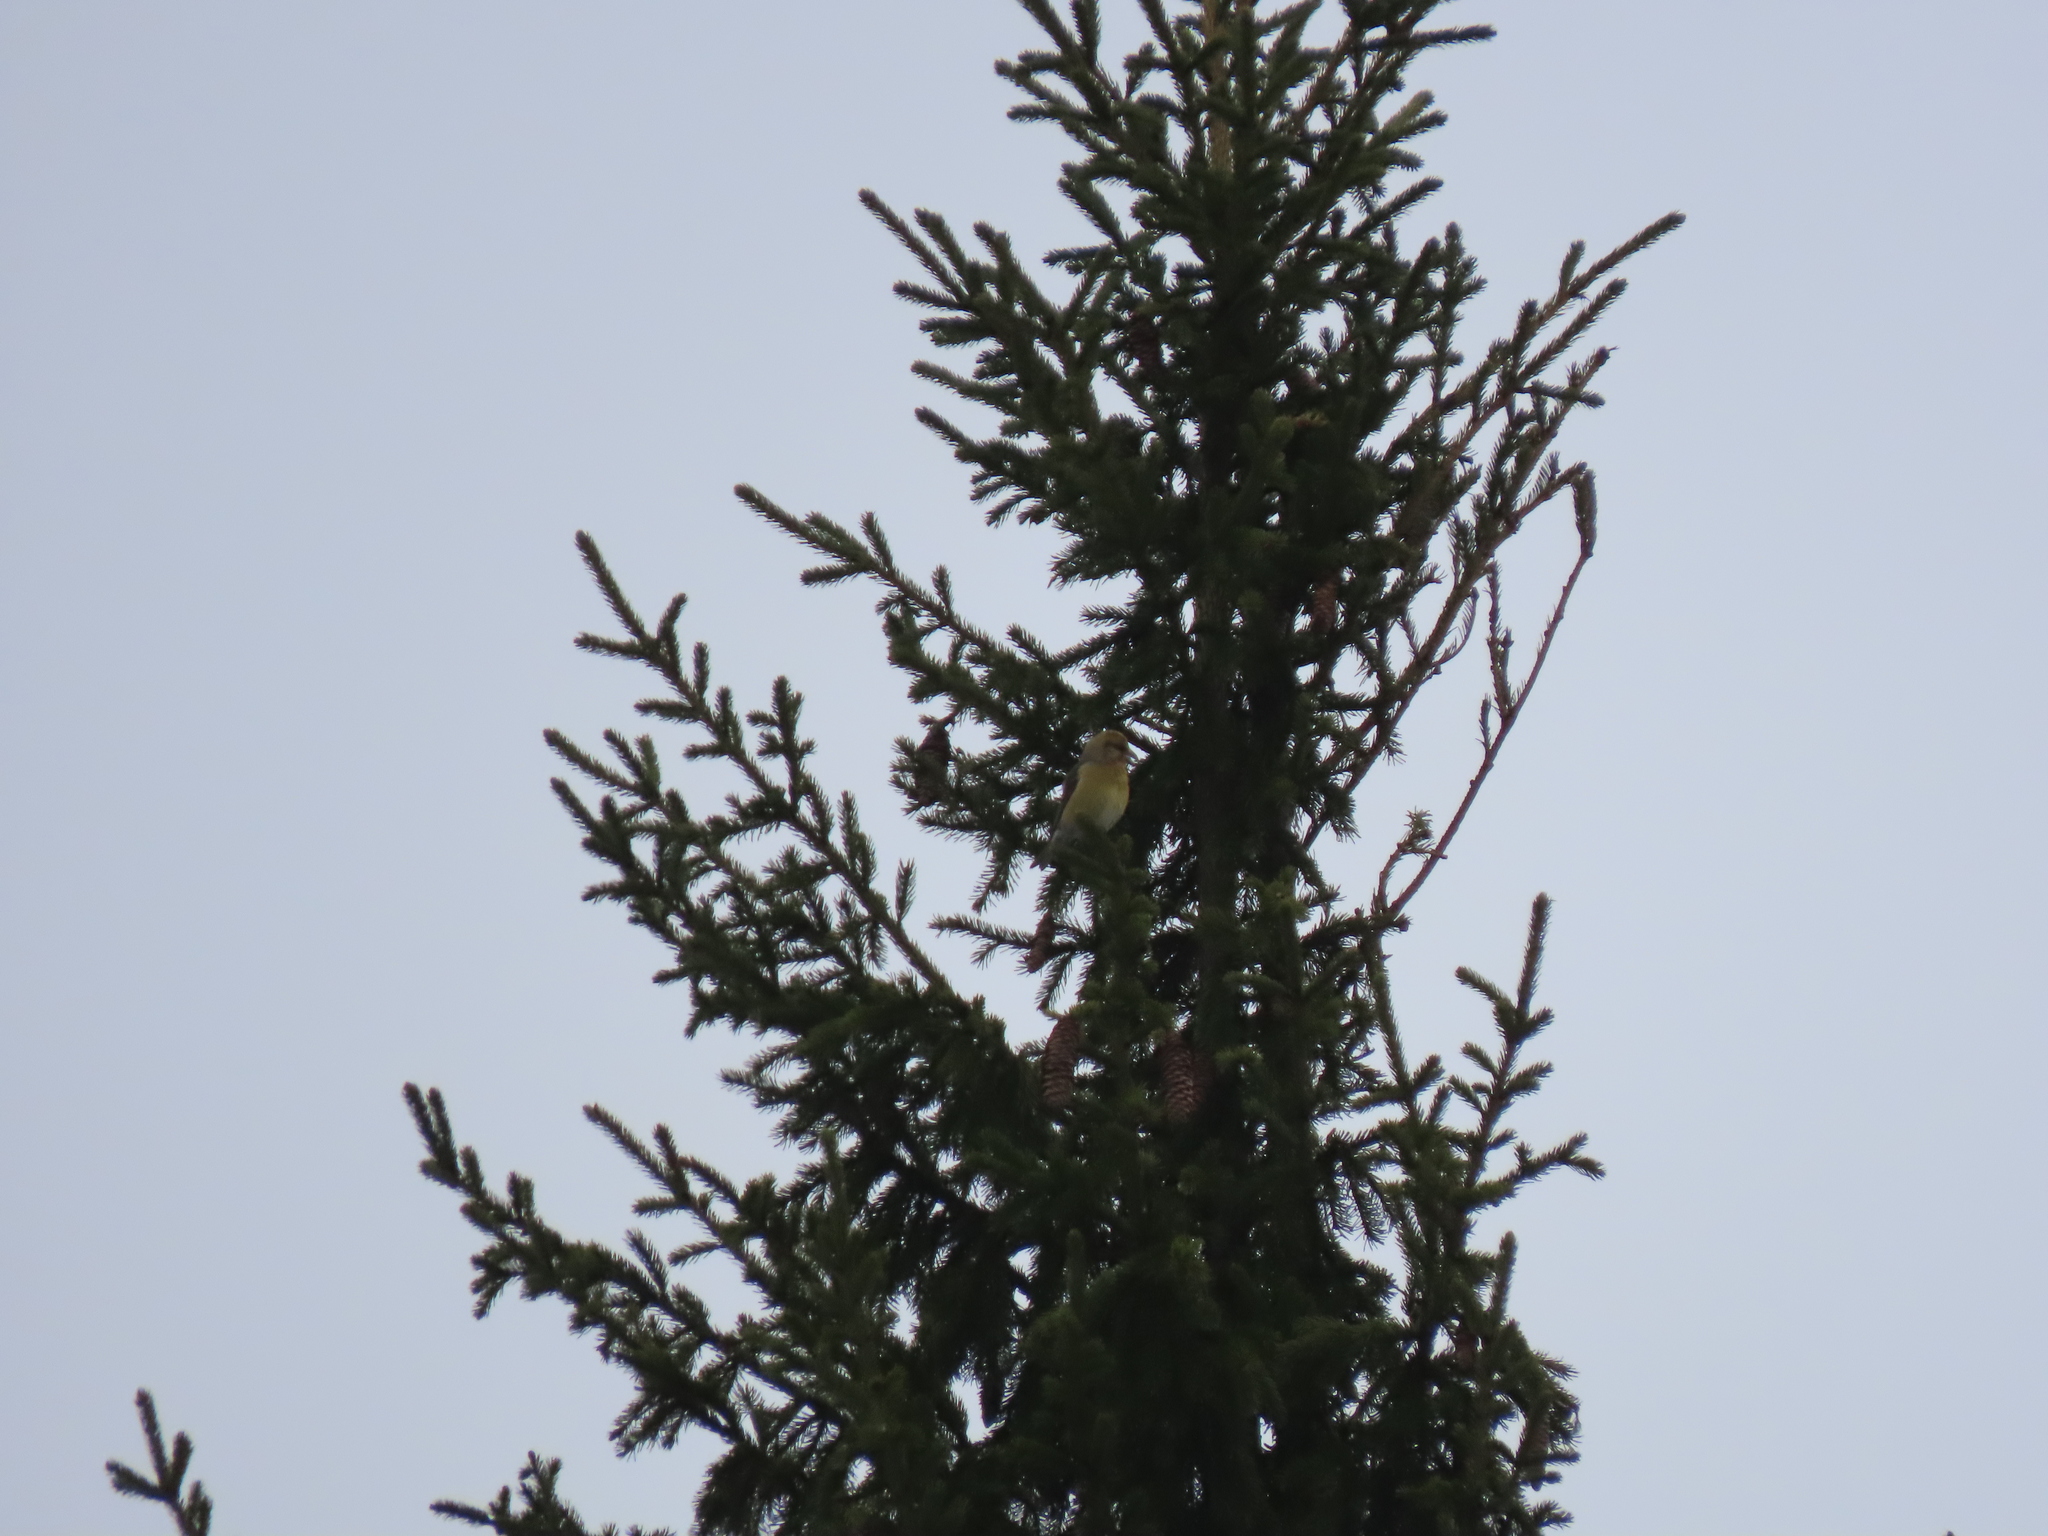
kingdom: Animalia
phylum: Chordata
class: Aves
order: Passeriformes
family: Fringillidae
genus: Loxia
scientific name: Loxia curvirostra
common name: Red crossbill
